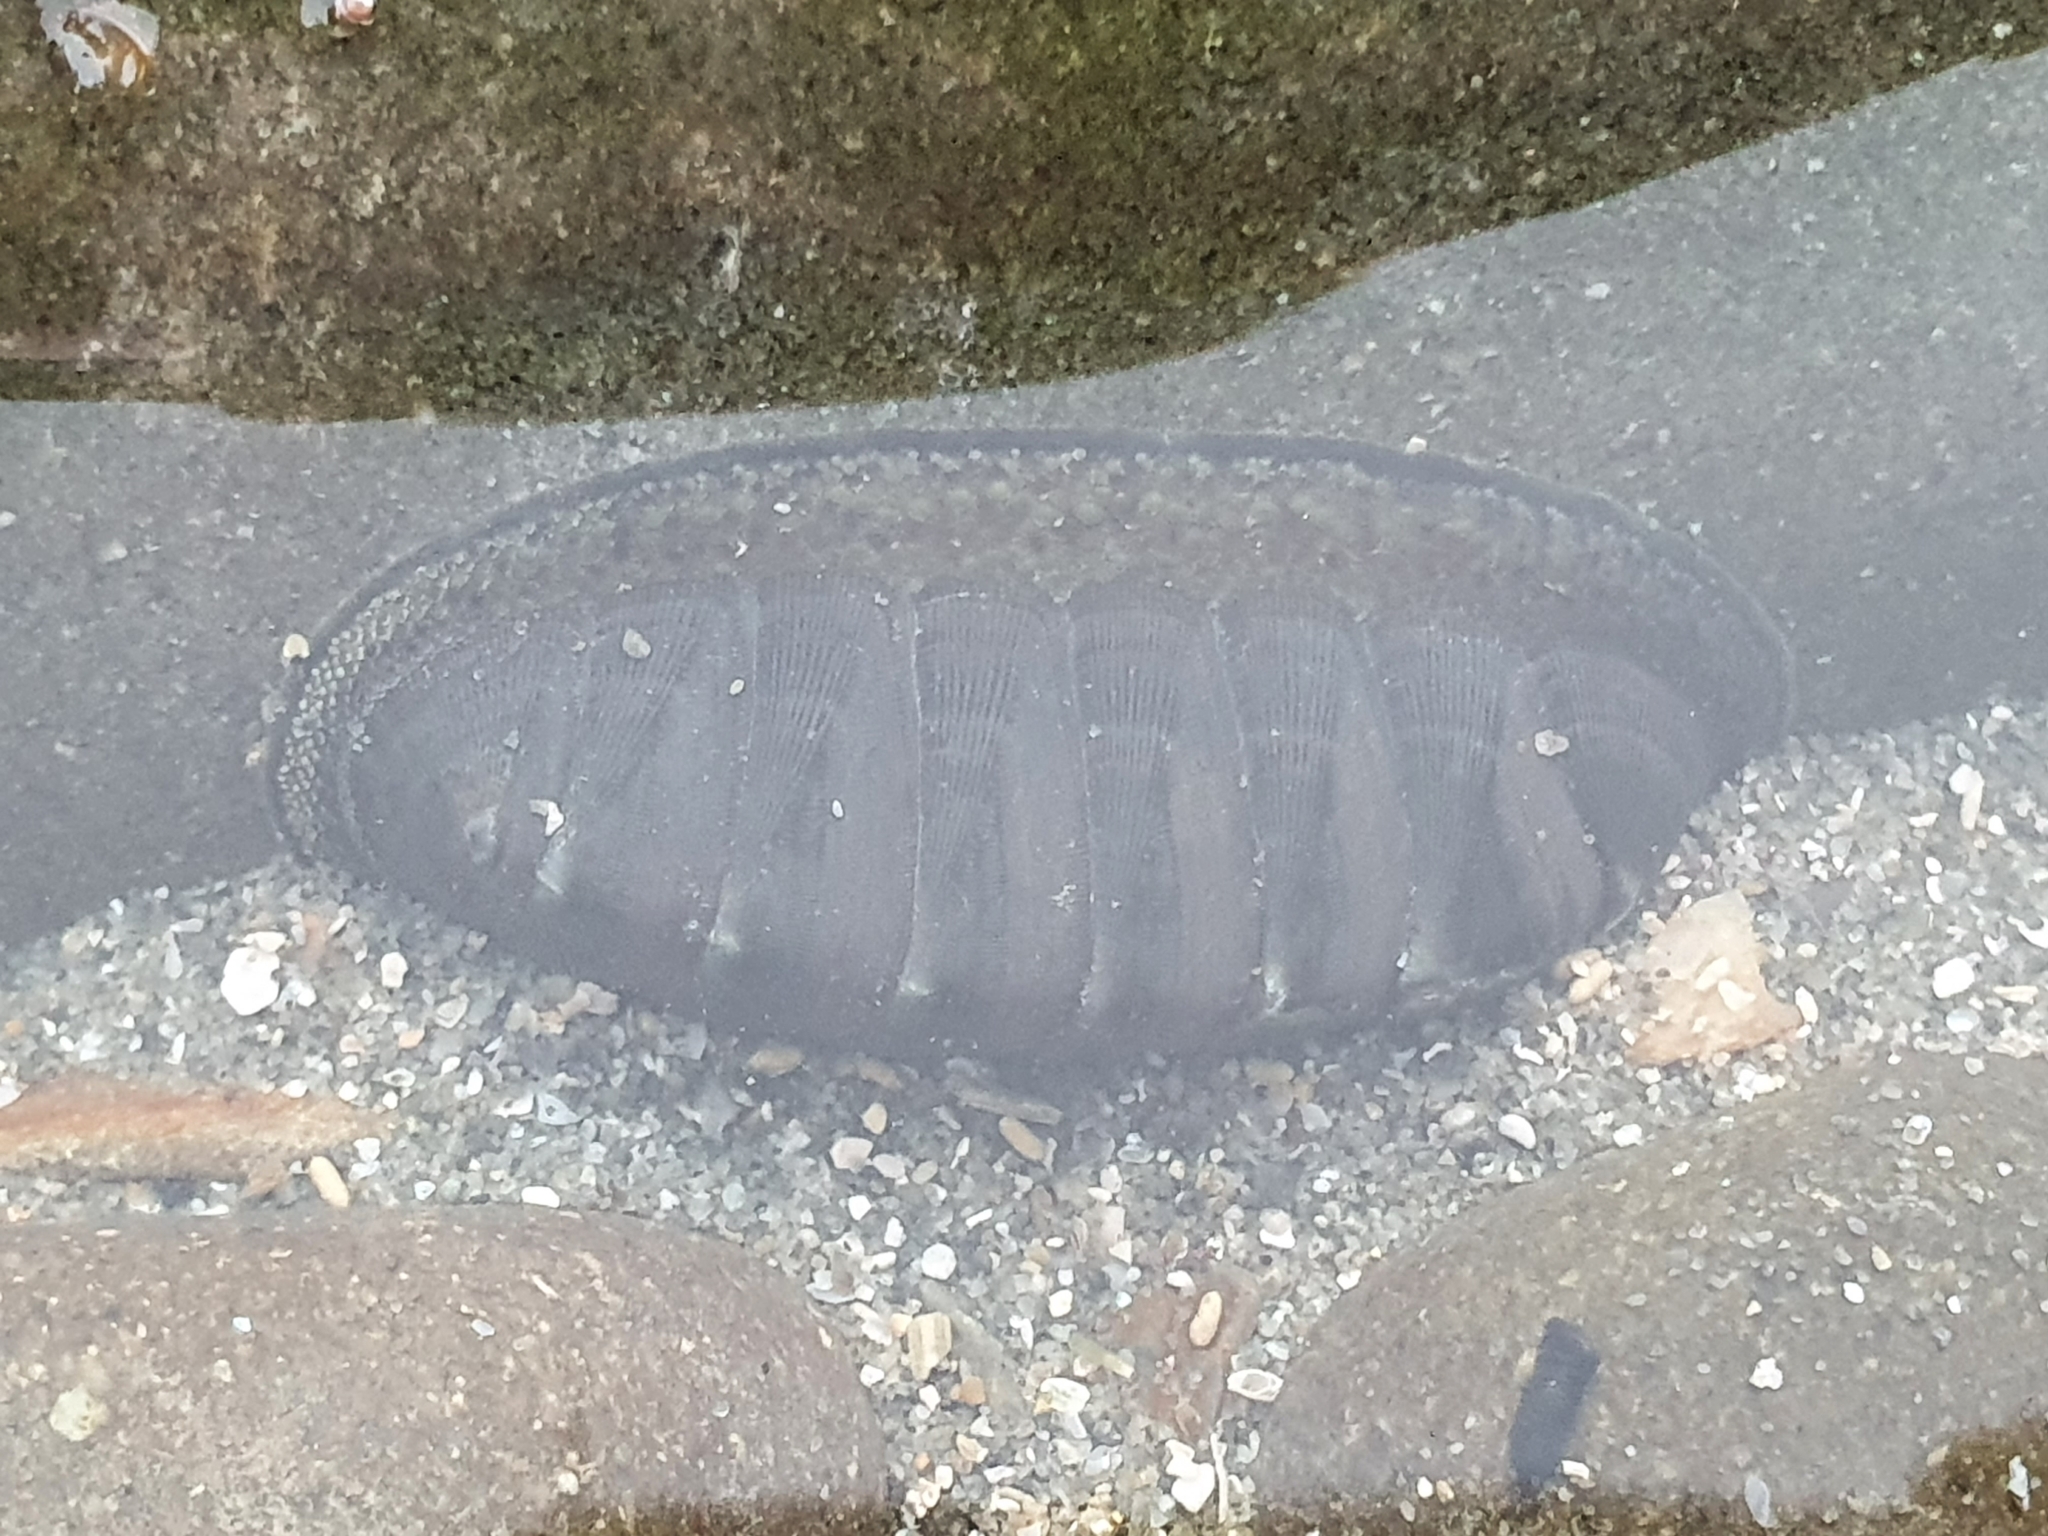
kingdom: Animalia
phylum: Mollusca
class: Polyplacophora
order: Chitonida
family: Chitonidae
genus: Chiton
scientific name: Chiton glaucus
